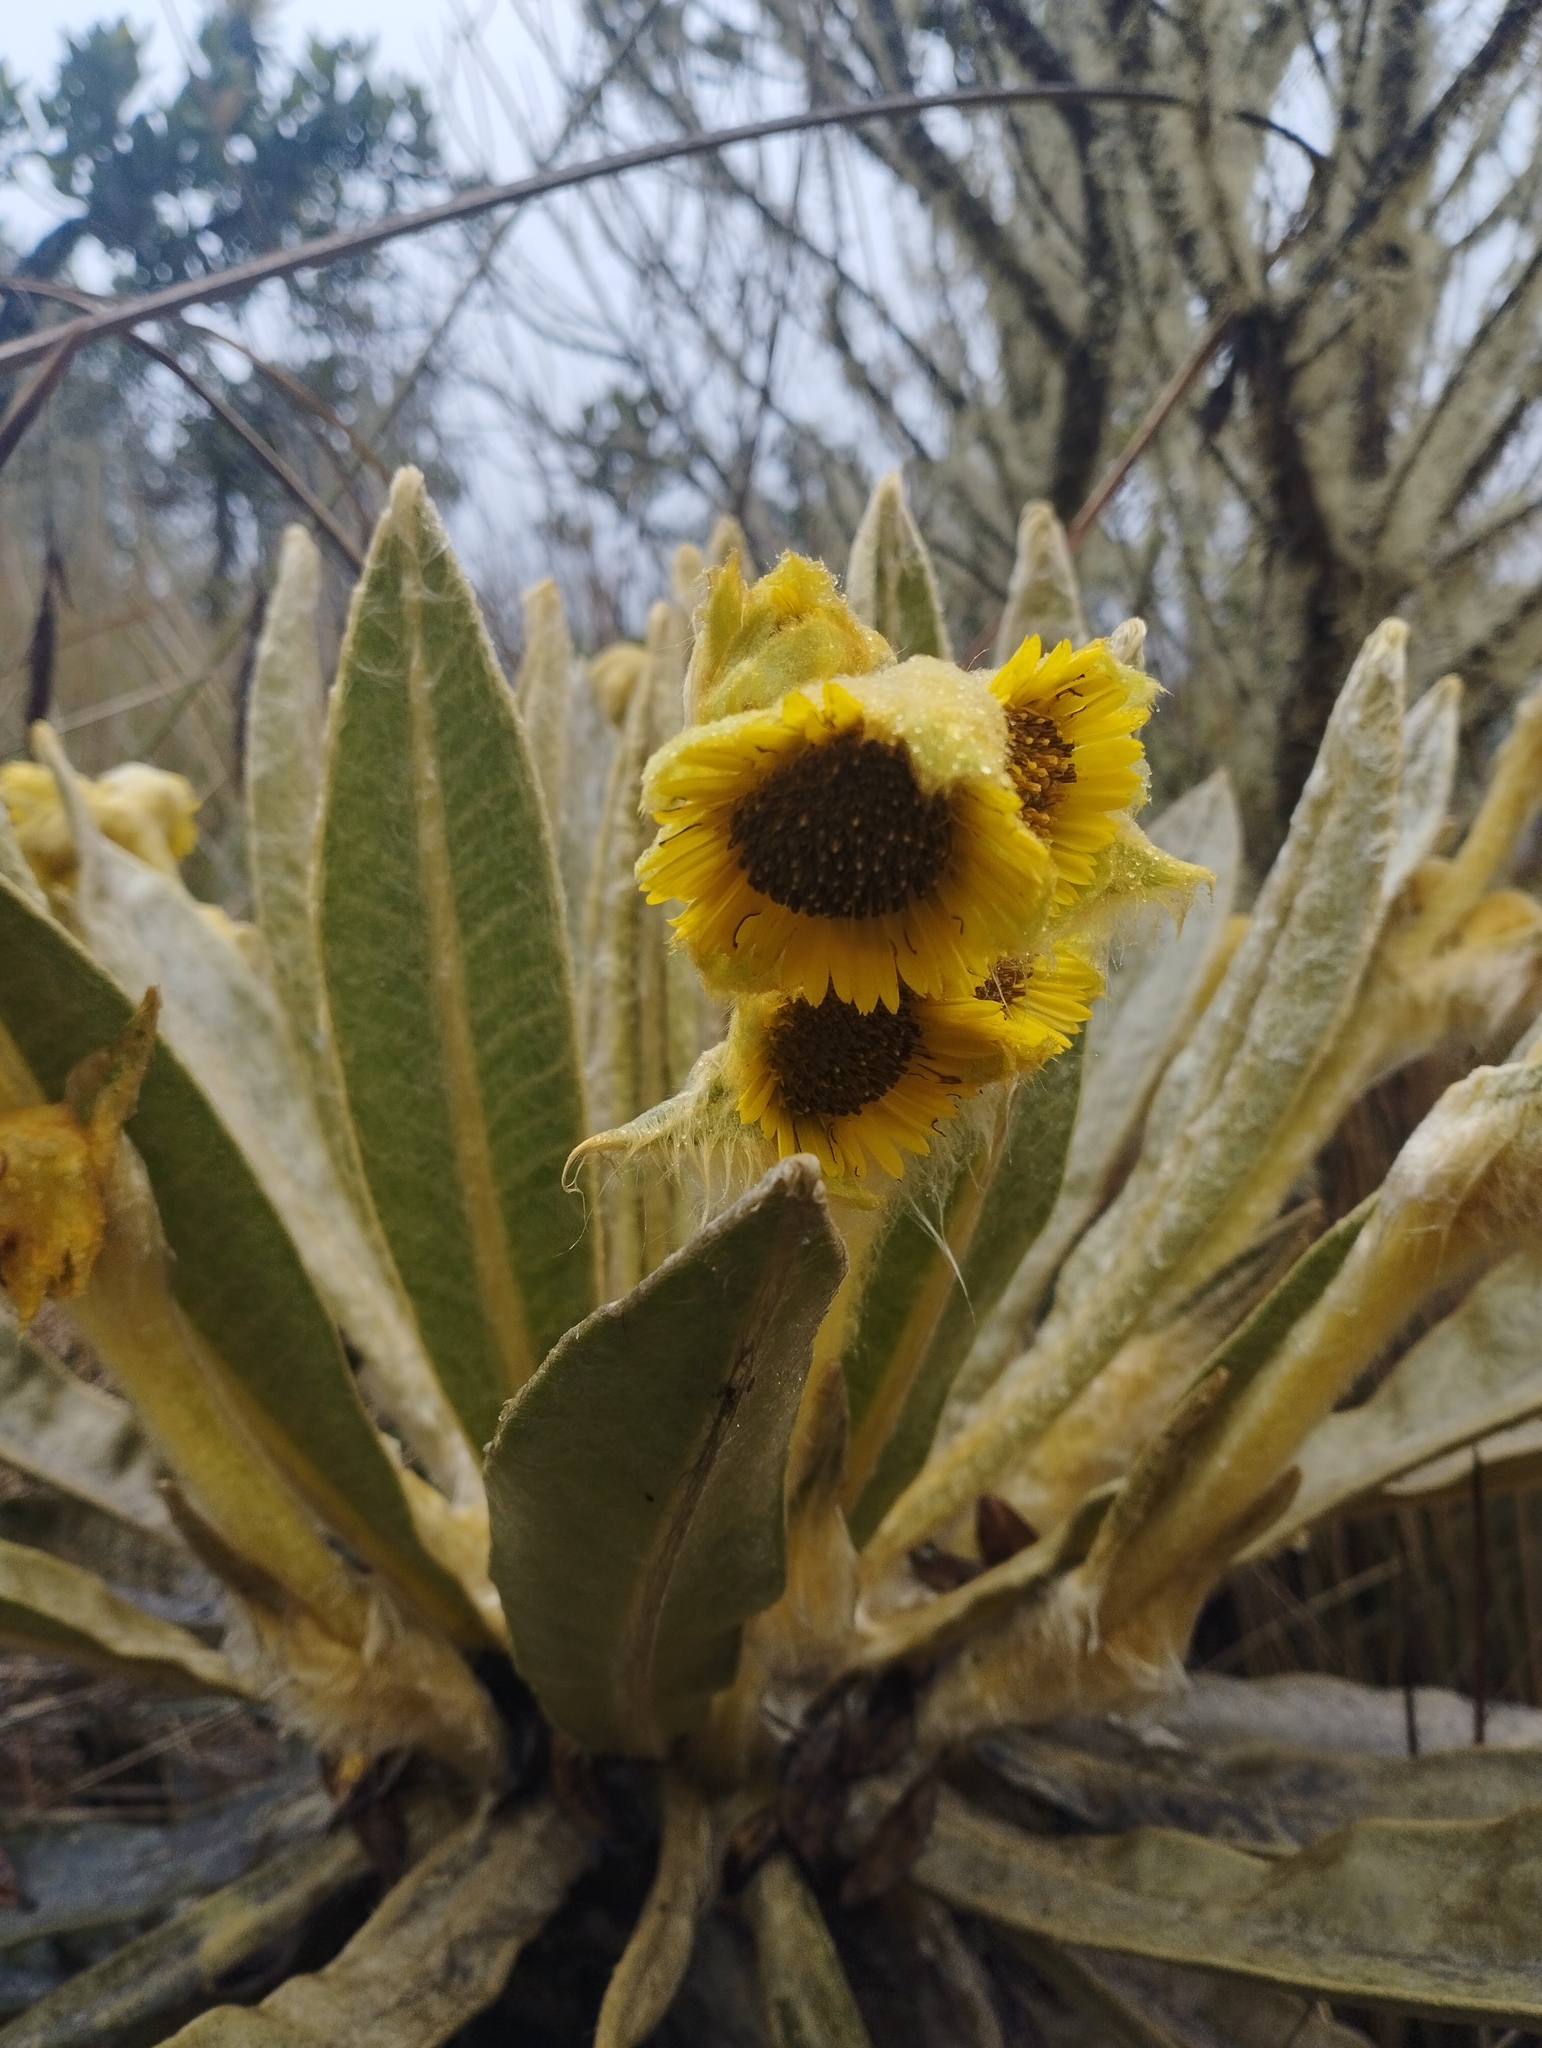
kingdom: Plantae
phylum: Tracheophyta
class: Magnoliopsida
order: Asterales
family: Asteraceae
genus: Espeletia
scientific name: Espeletia hartwegiana
